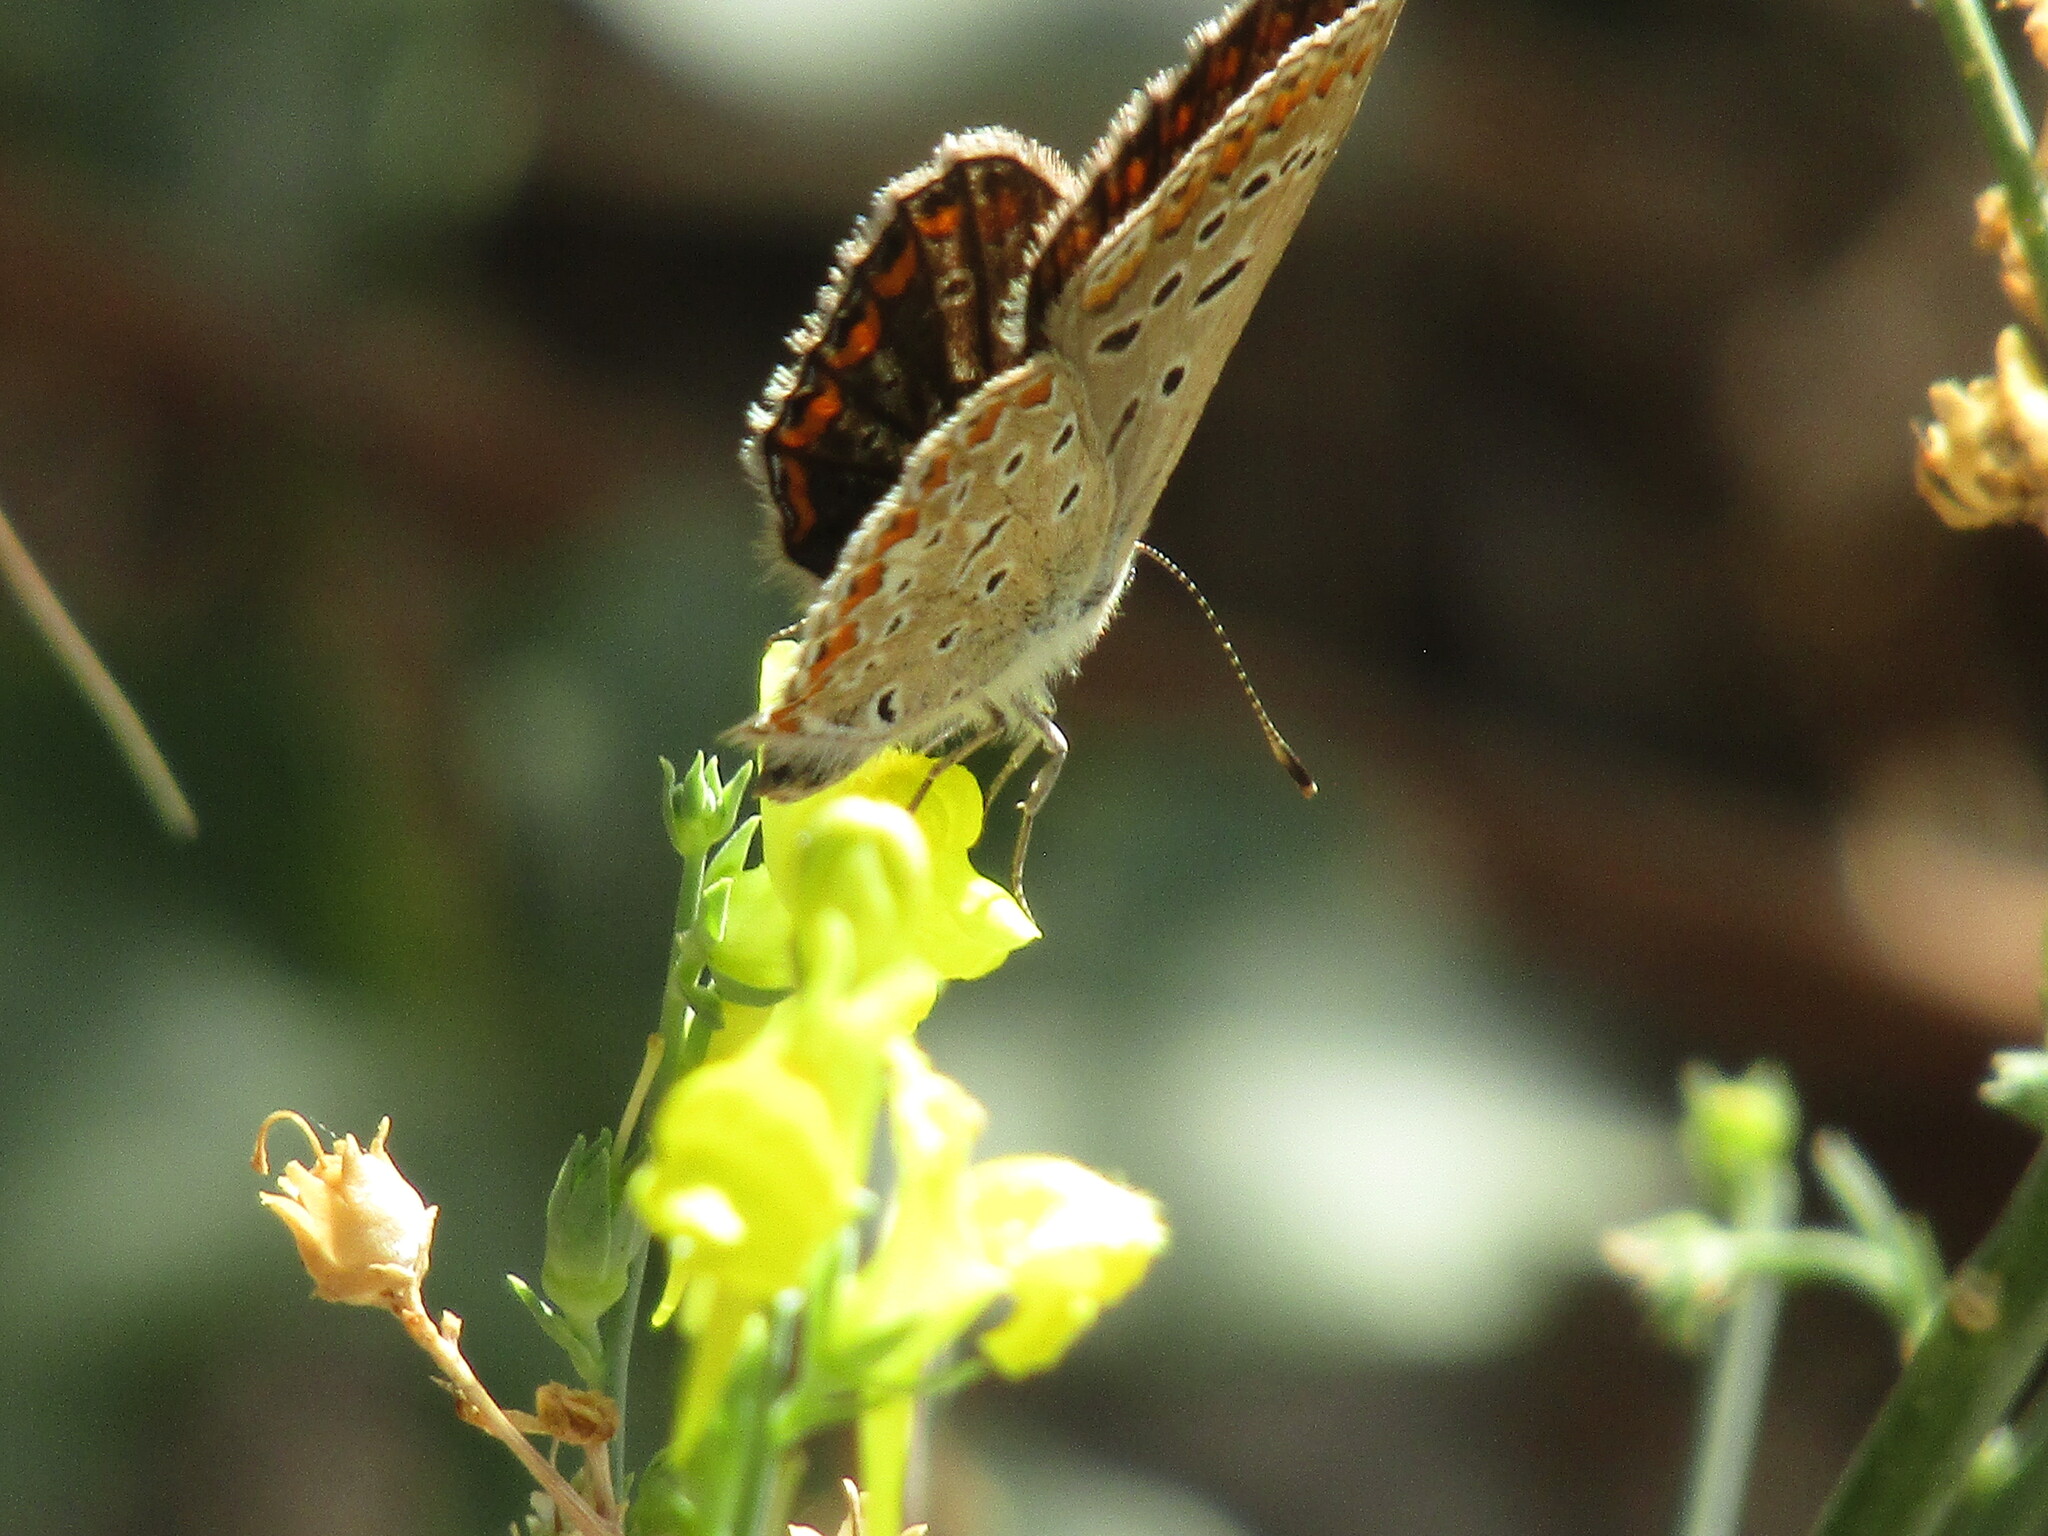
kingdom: Animalia
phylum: Arthropoda
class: Insecta
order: Lepidoptera
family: Lycaenidae
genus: Polyommatus
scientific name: Polyommatus icarus
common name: Common blue
